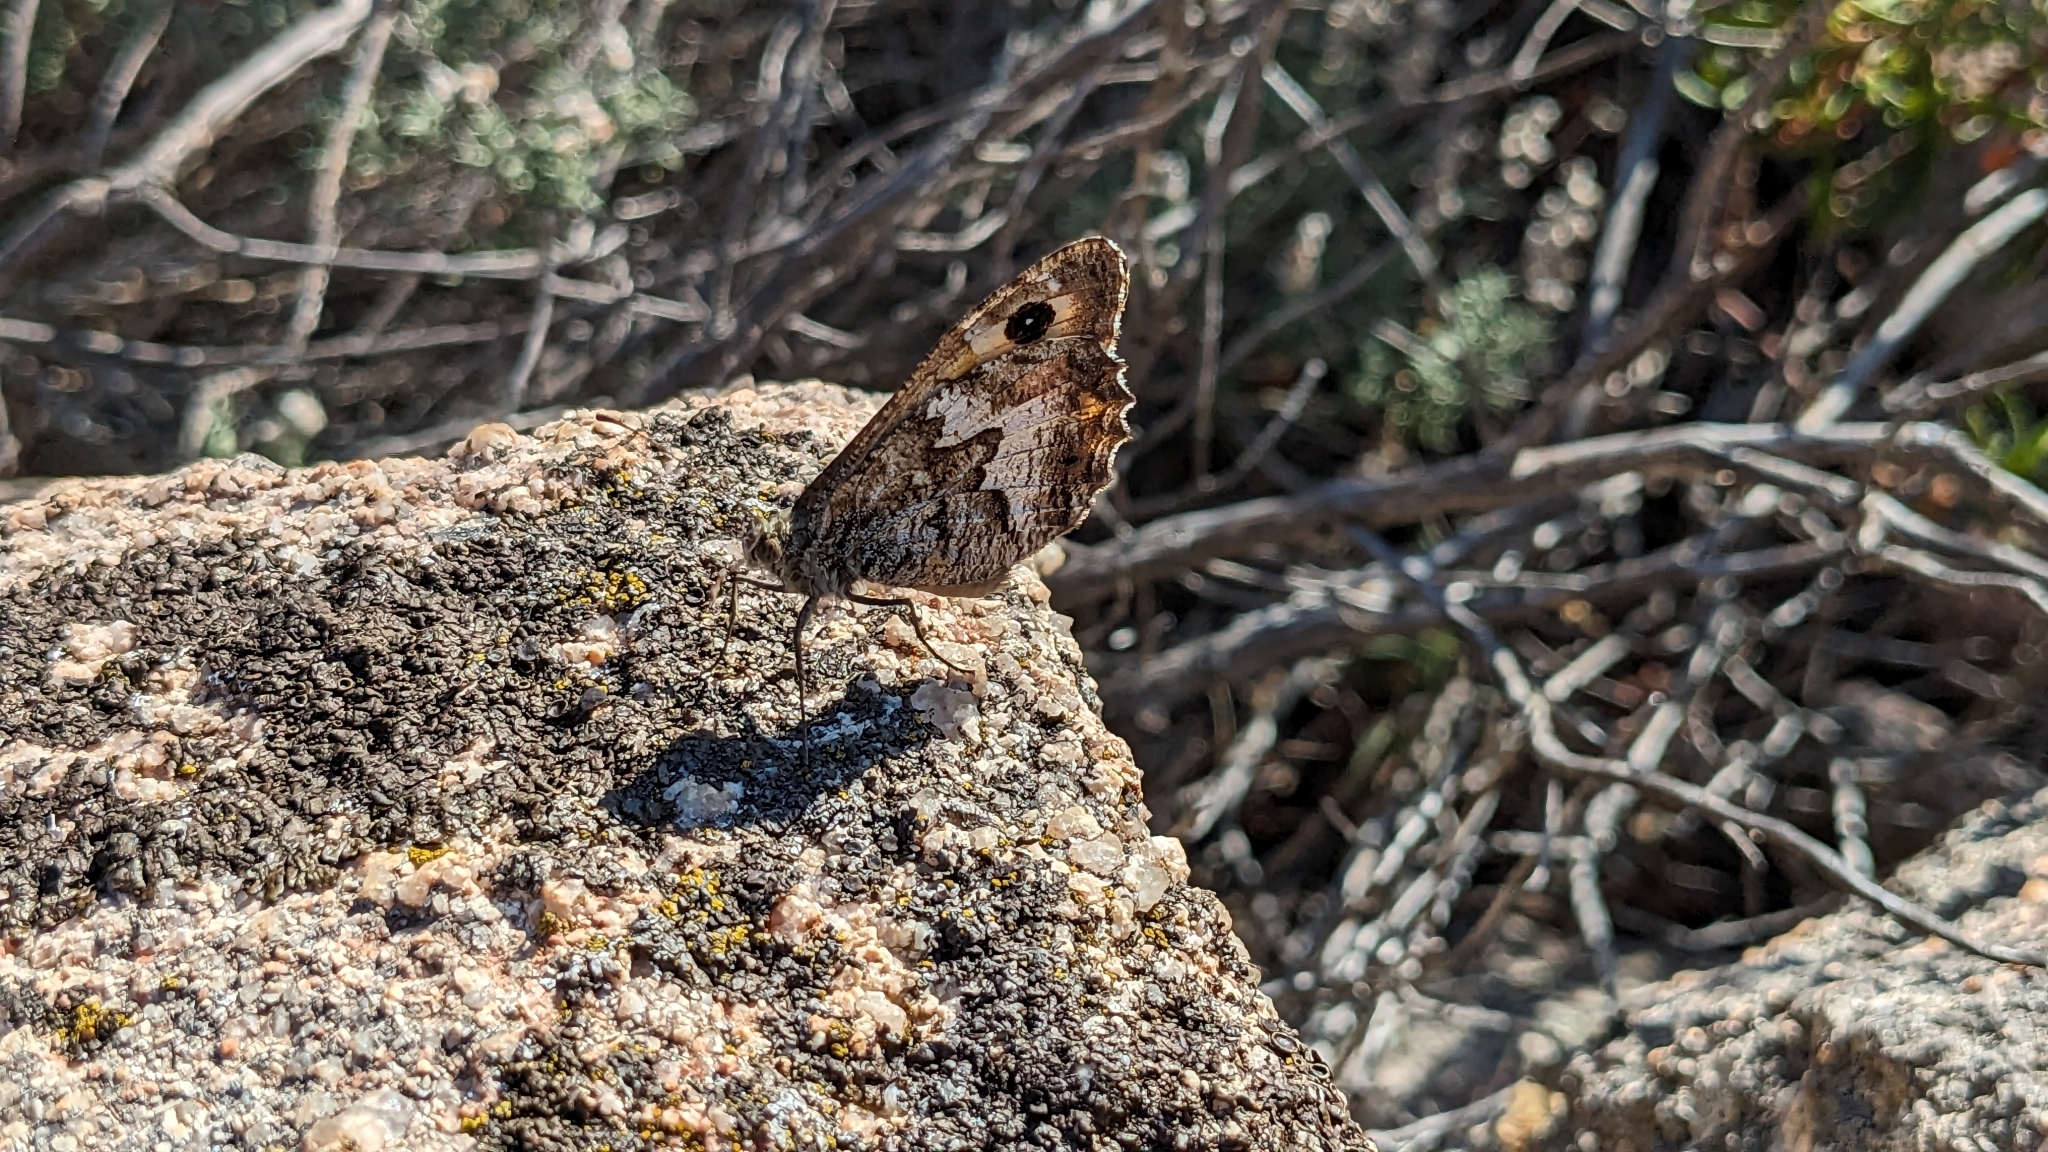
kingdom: Animalia
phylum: Arthropoda
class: Insecta
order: Lepidoptera
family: Nymphalidae
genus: Hipparchia
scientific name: Hipparchia algirica
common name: Mountain grayling
